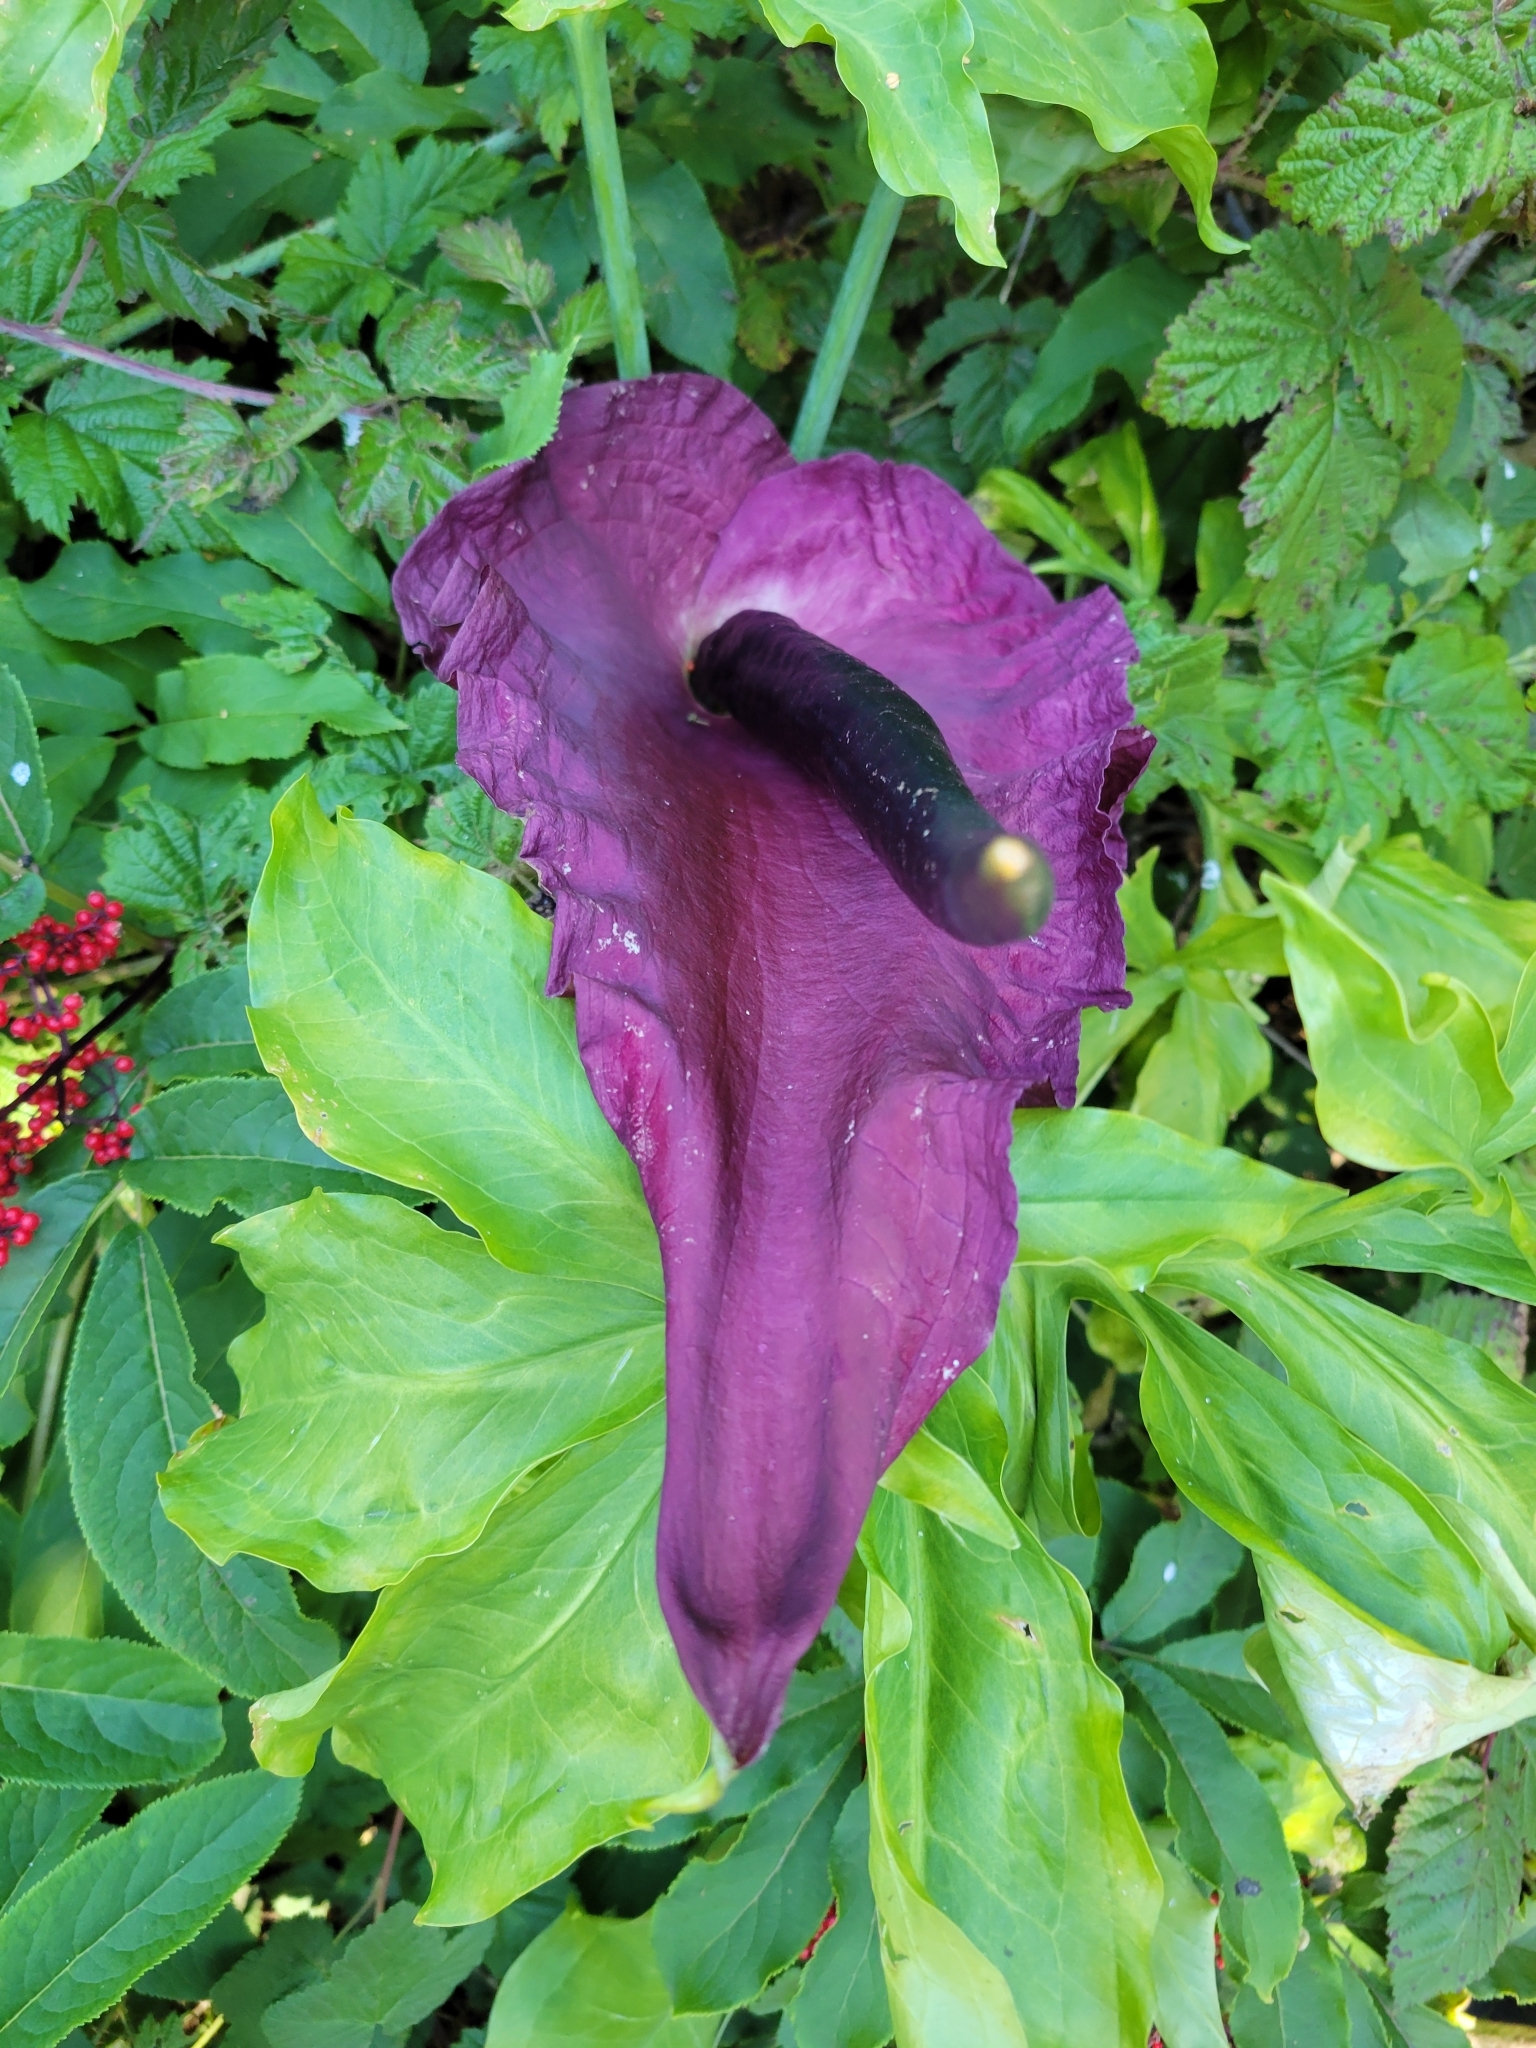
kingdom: Plantae
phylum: Tracheophyta
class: Liliopsida
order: Alismatales
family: Araceae
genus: Dracunculus
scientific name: Dracunculus vulgaris
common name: Dragon arum
